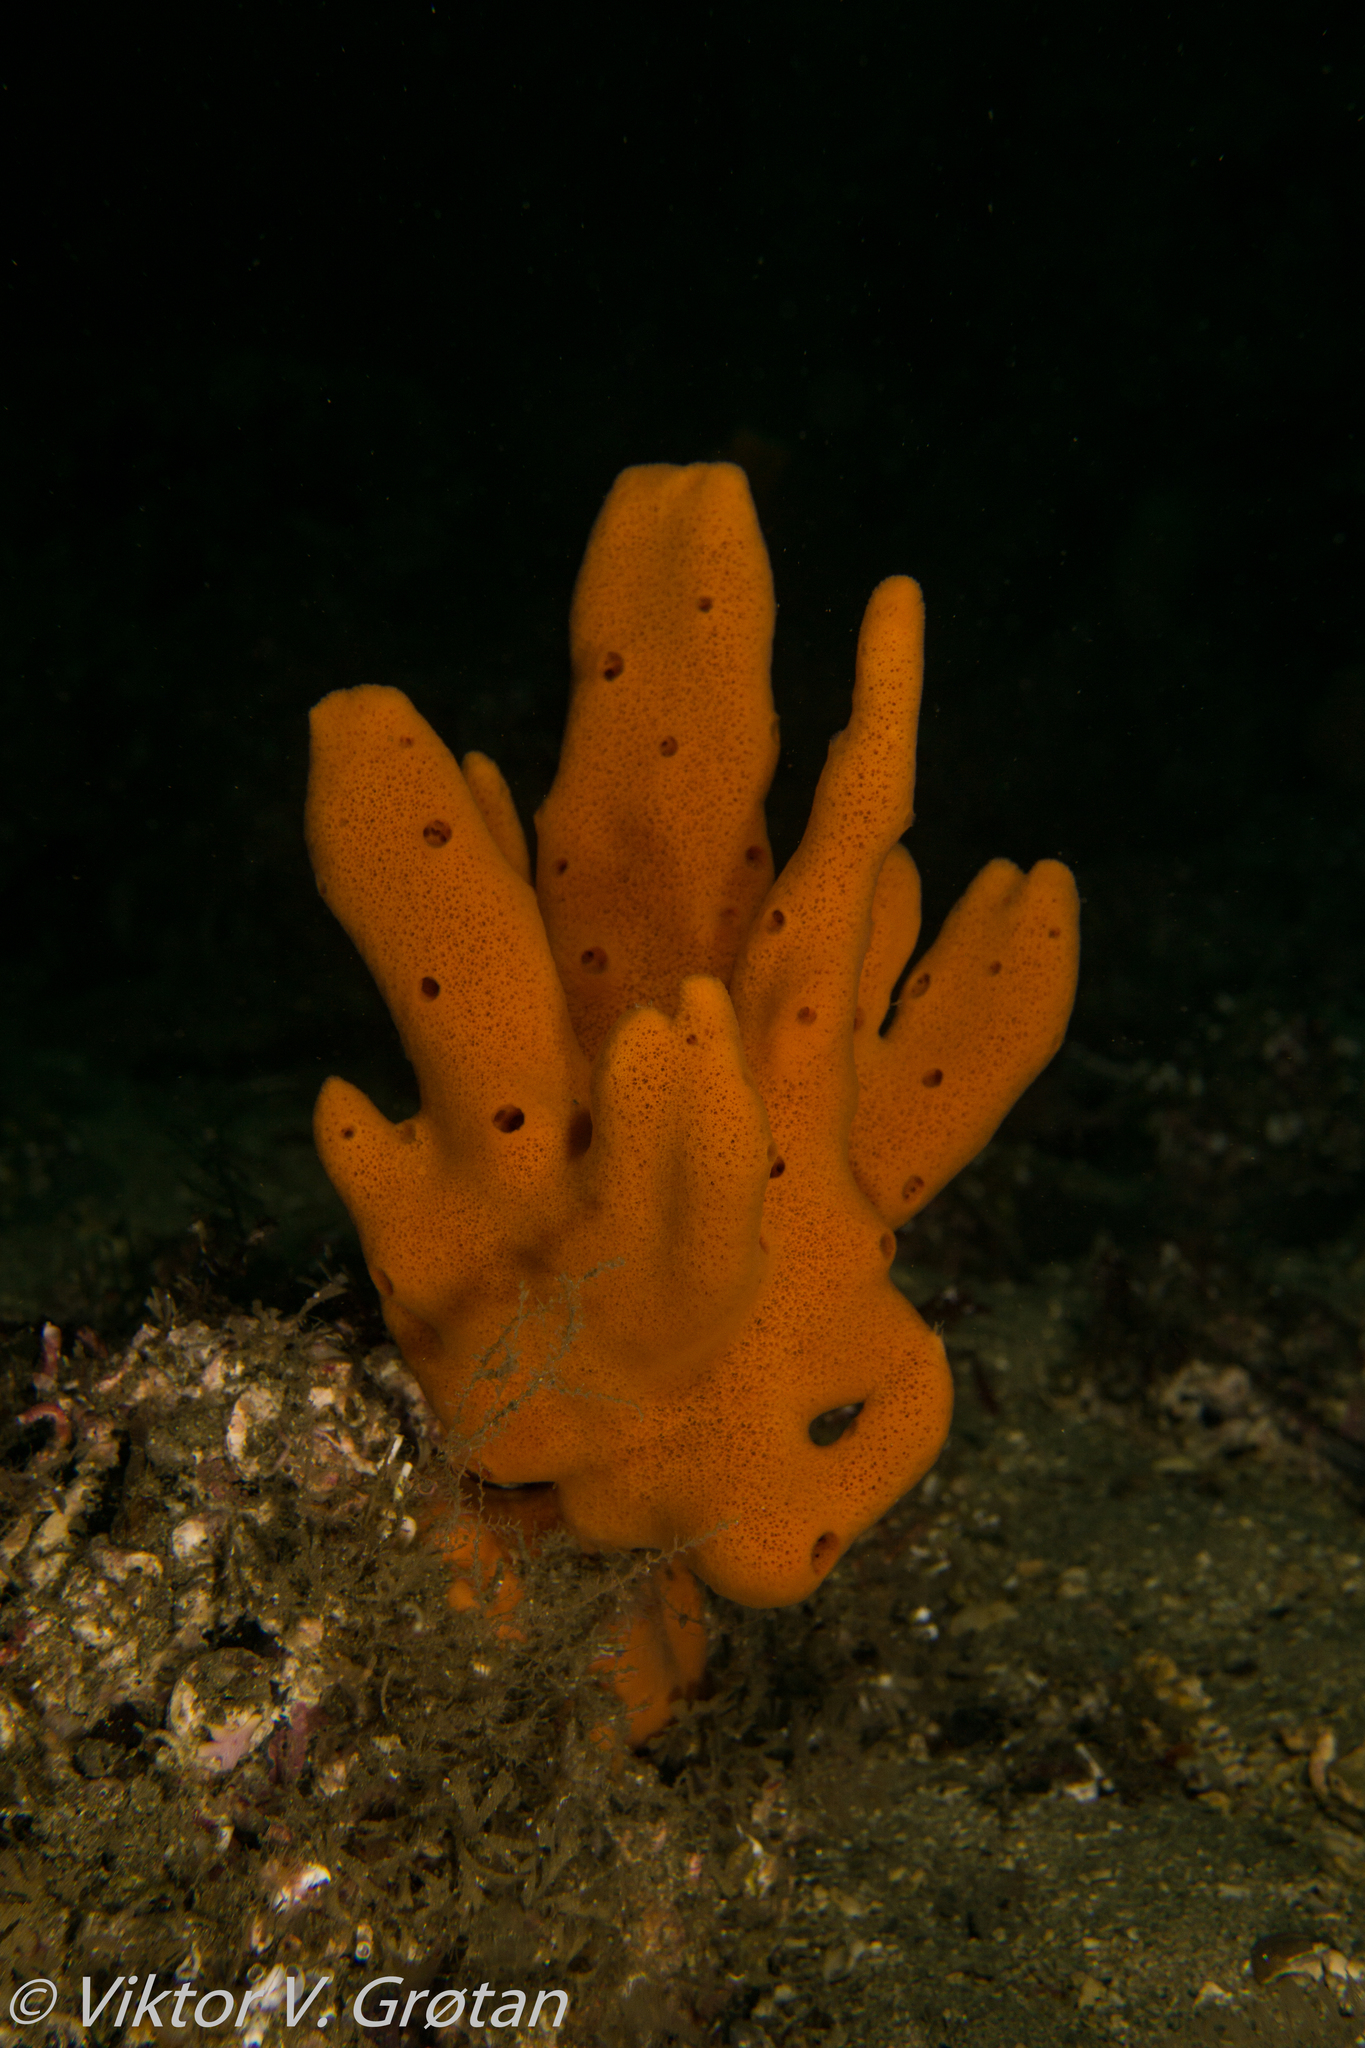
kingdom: Animalia
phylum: Porifera
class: Demospongiae
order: Poecilosclerida
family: Isodictyidae
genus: Isodictya
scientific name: Isodictya palmata
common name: Mermaid's glove
